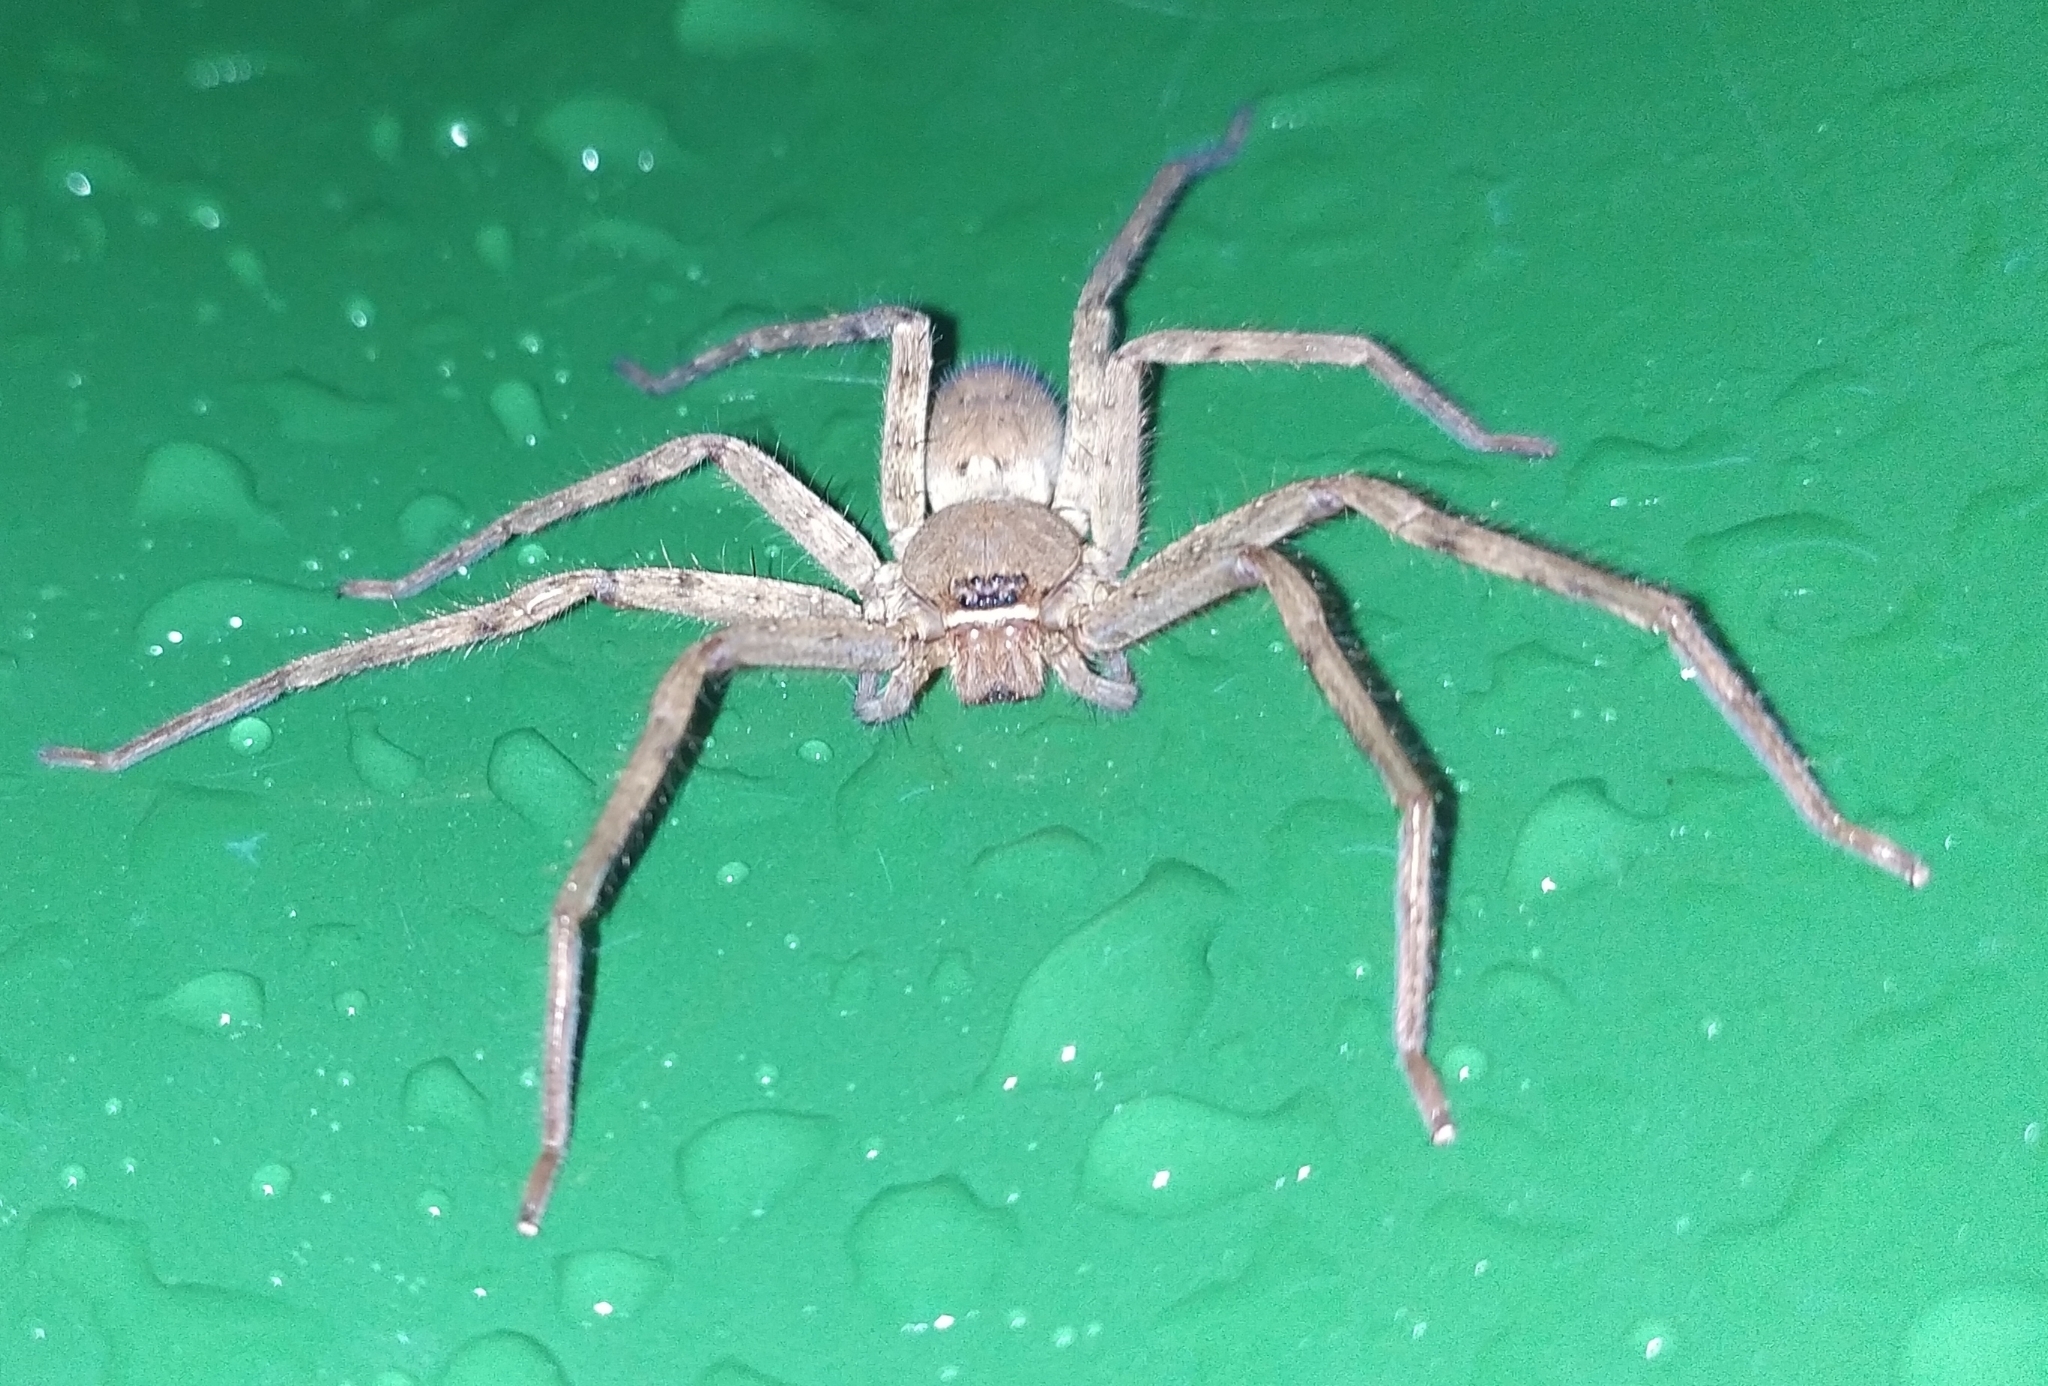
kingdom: Animalia
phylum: Arthropoda
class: Arachnida
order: Araneae
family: Sparassidae
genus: Heteropoda
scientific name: Heteropoda venatoria
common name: Huntsman spider
